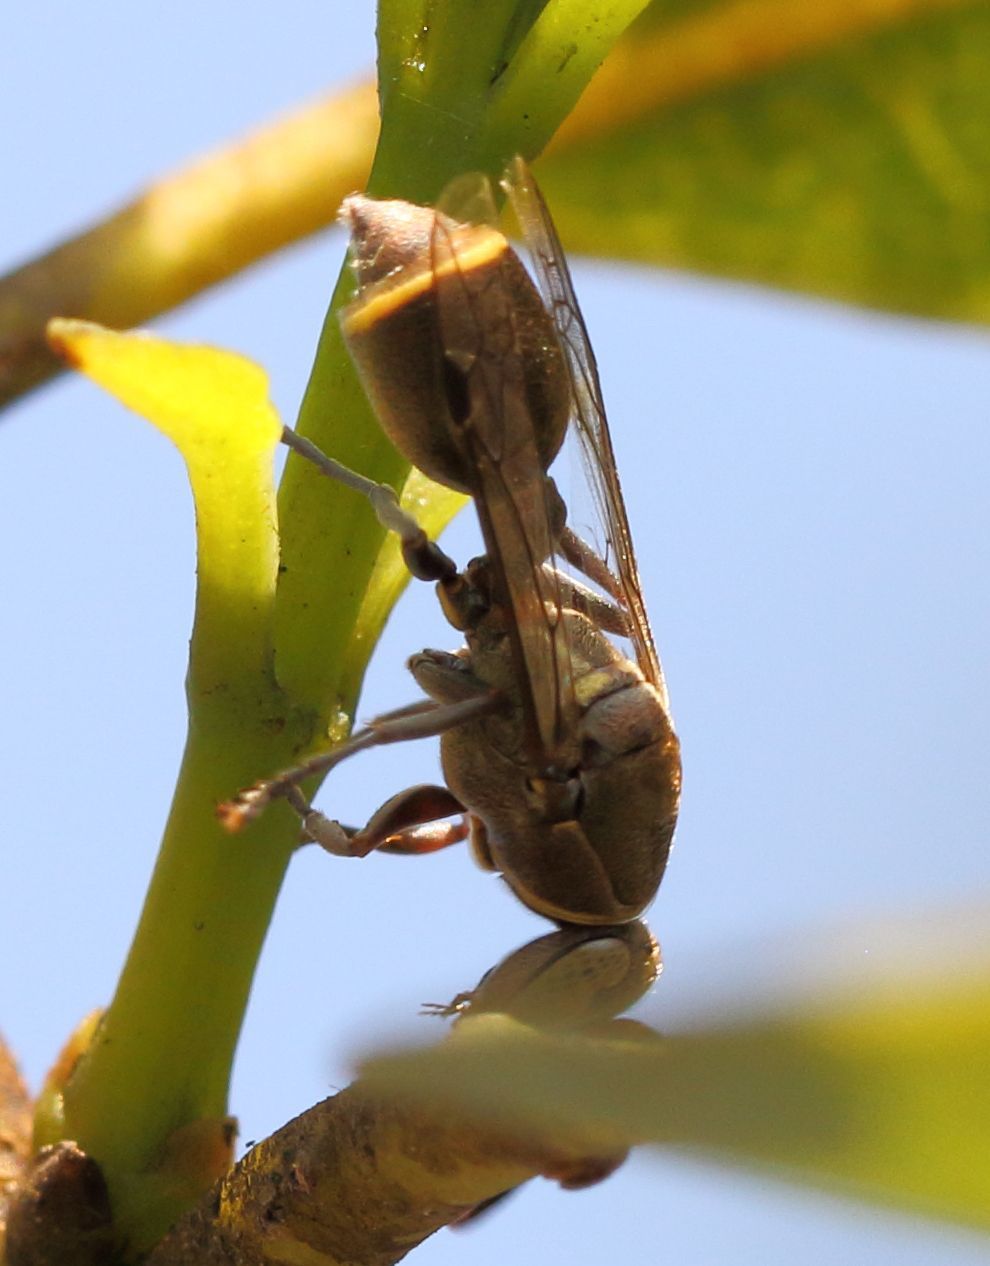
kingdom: Animalia
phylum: Arthropoda
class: Insecta
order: Hymenoptera
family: Vespidae
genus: Ropalidia
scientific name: Ropalidia antennata
